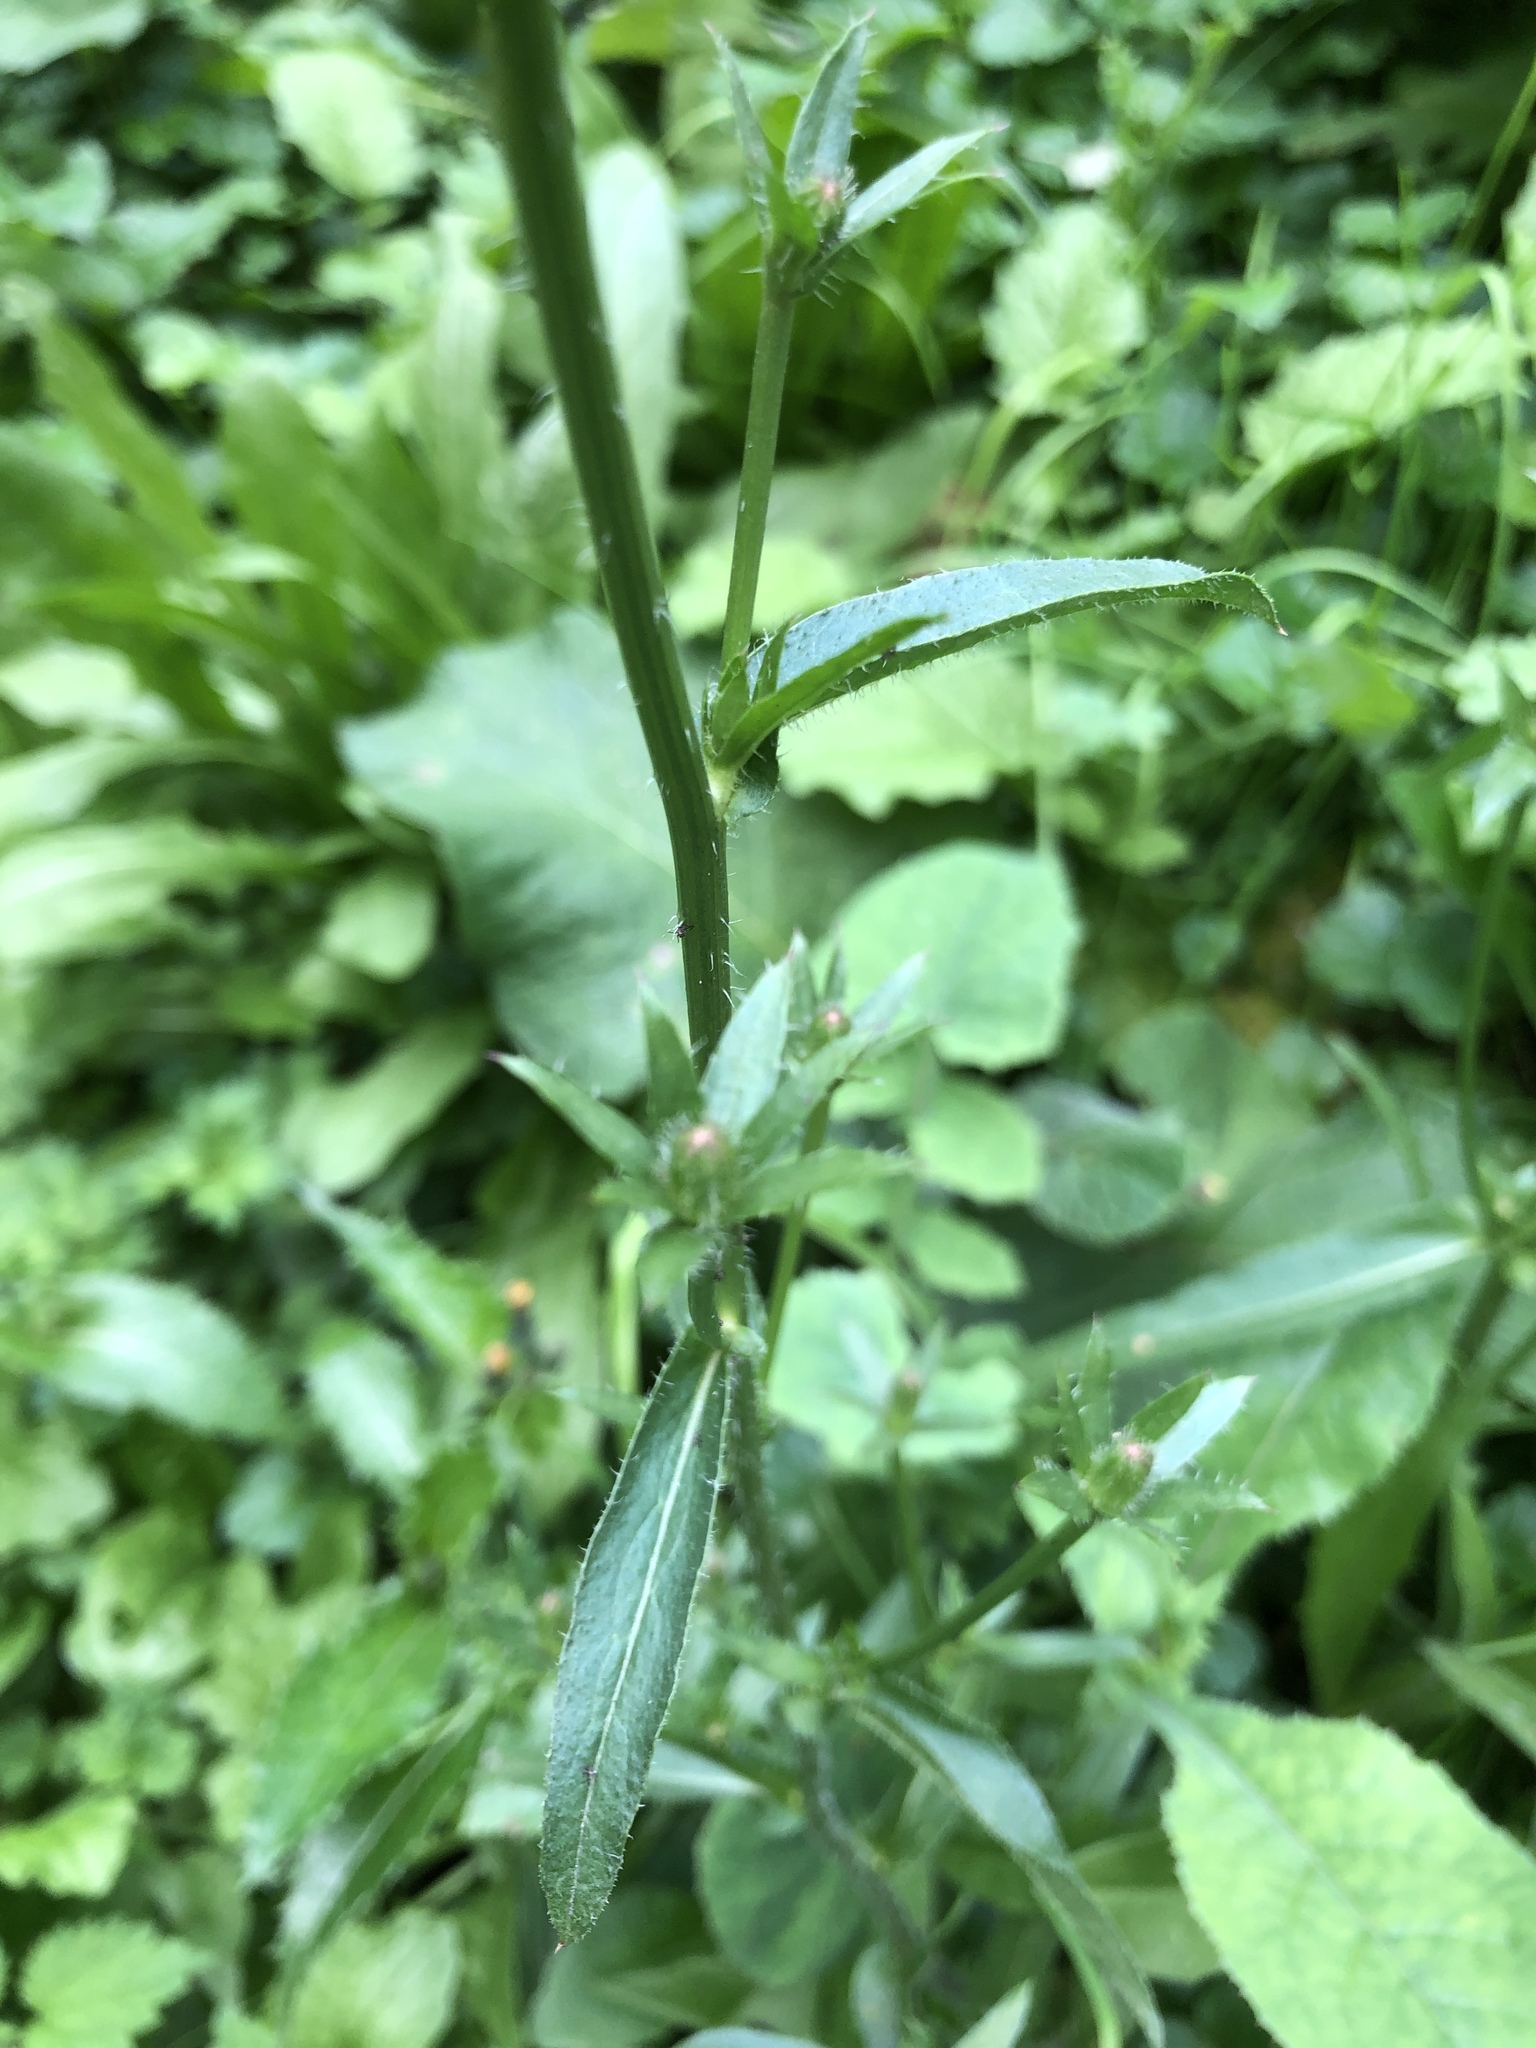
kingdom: Plantae
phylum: Tracheophyta
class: Magnoliopsida
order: Asterales
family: Asteraceae
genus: Cichorium
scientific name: Cichorium intybus
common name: Chicory
